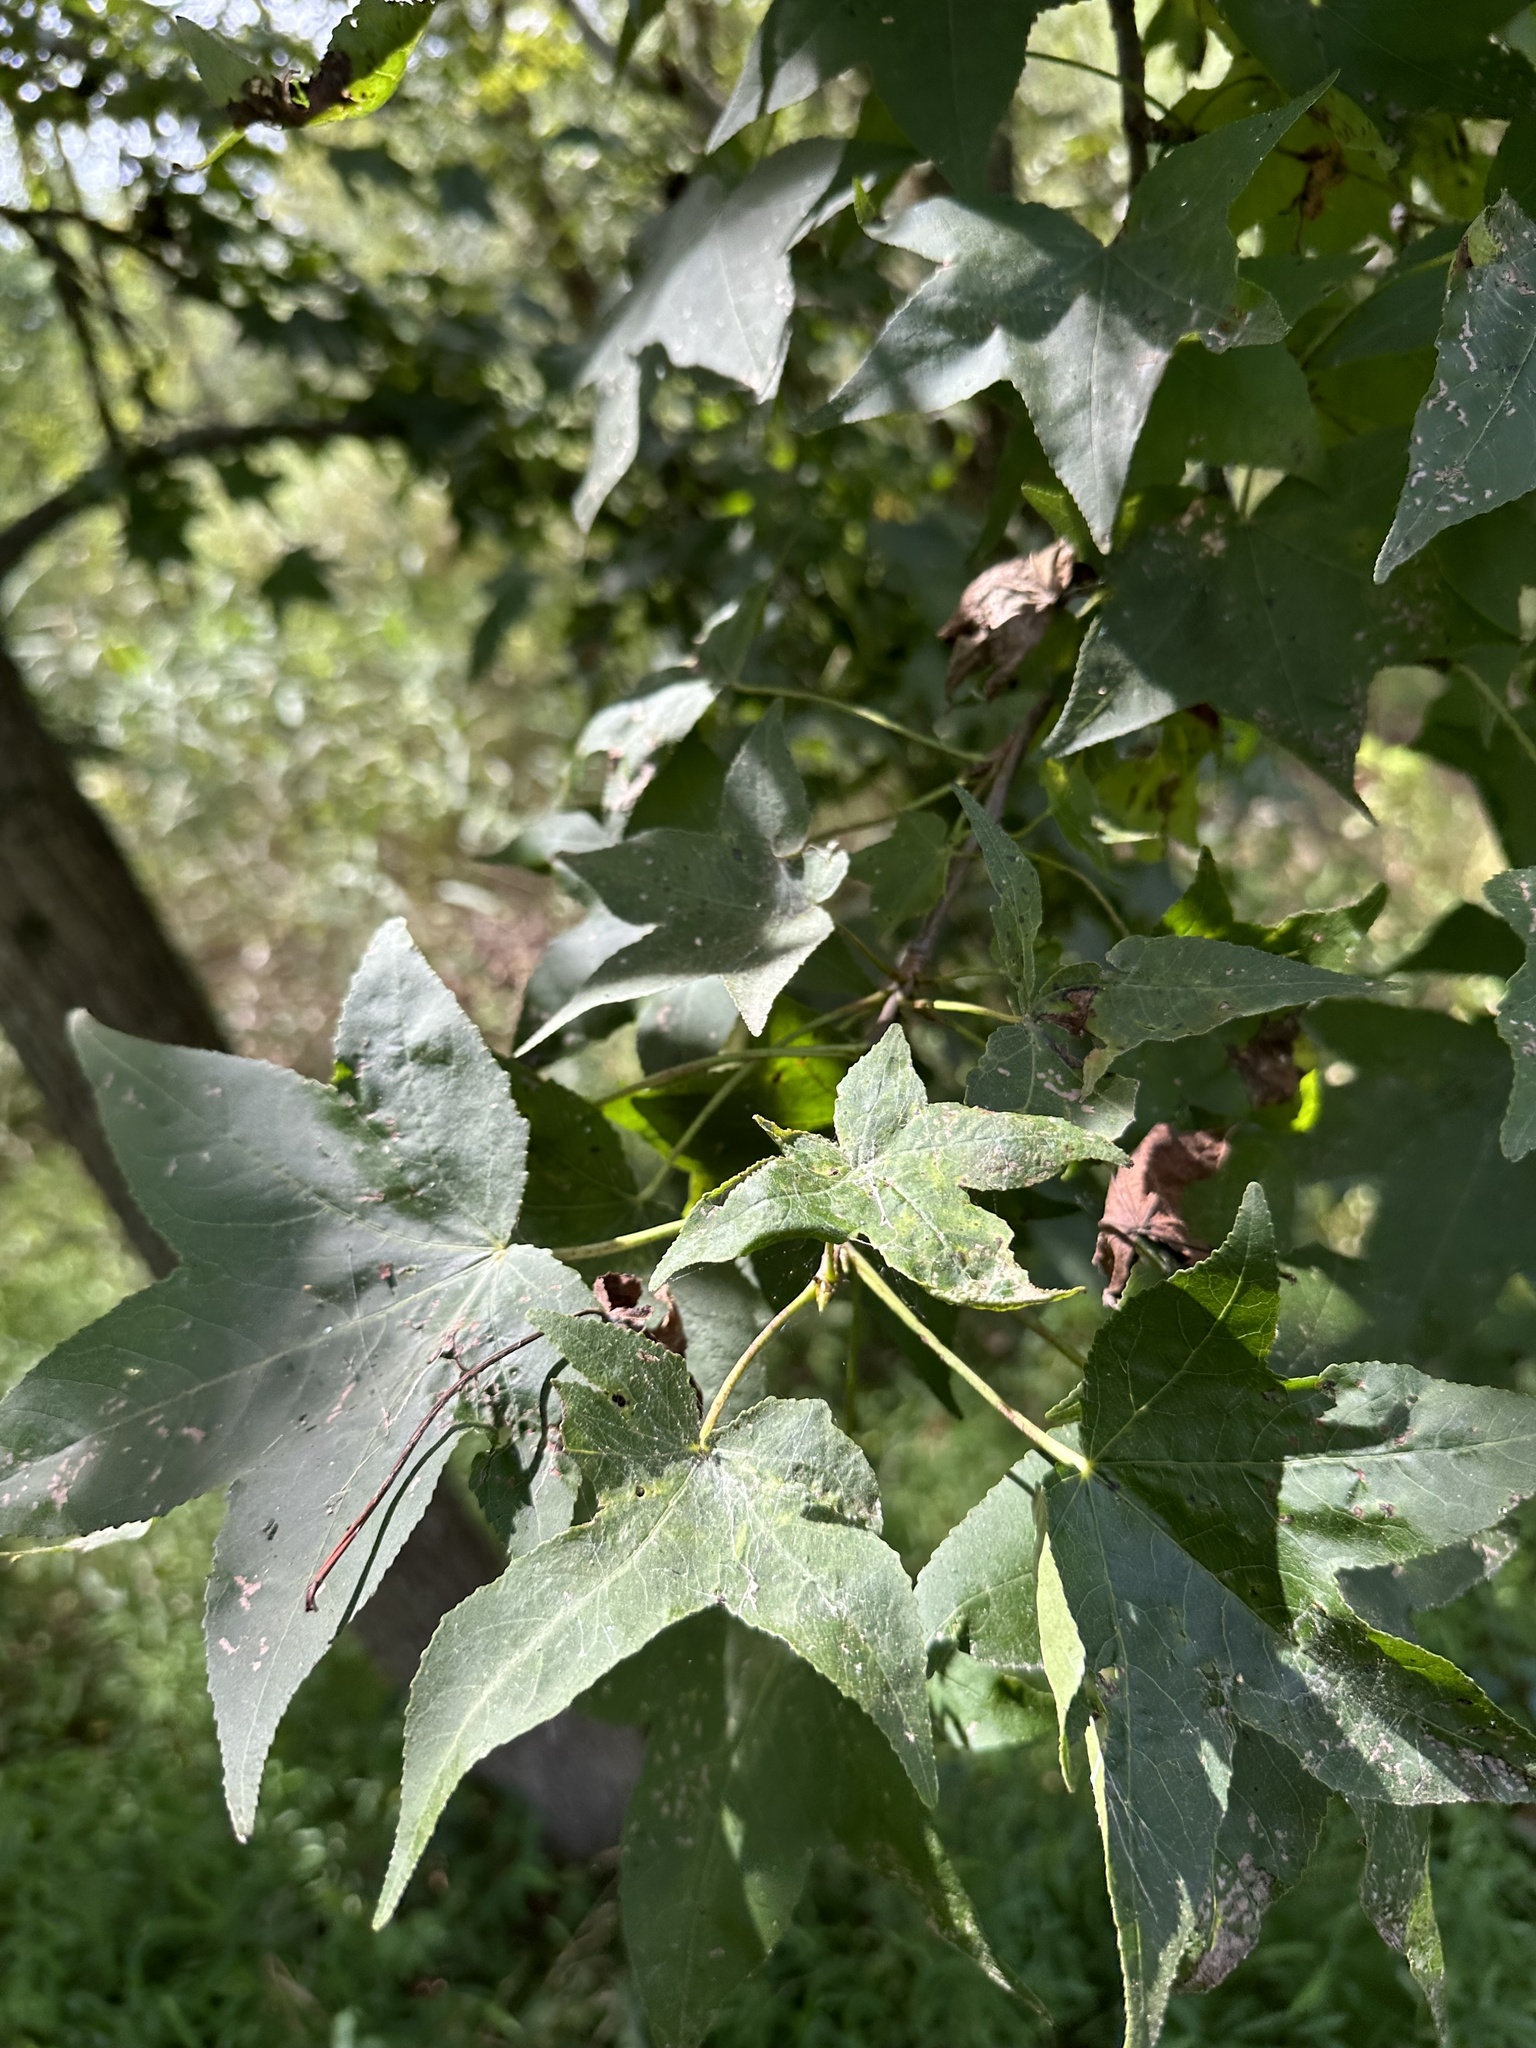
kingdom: Plantae
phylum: Tracheophyta
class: Magnoliopsida
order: Saxifragales
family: Altingiaceae
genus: Liquidambar
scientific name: Liquidambar styraciflua
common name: Sweet gum
